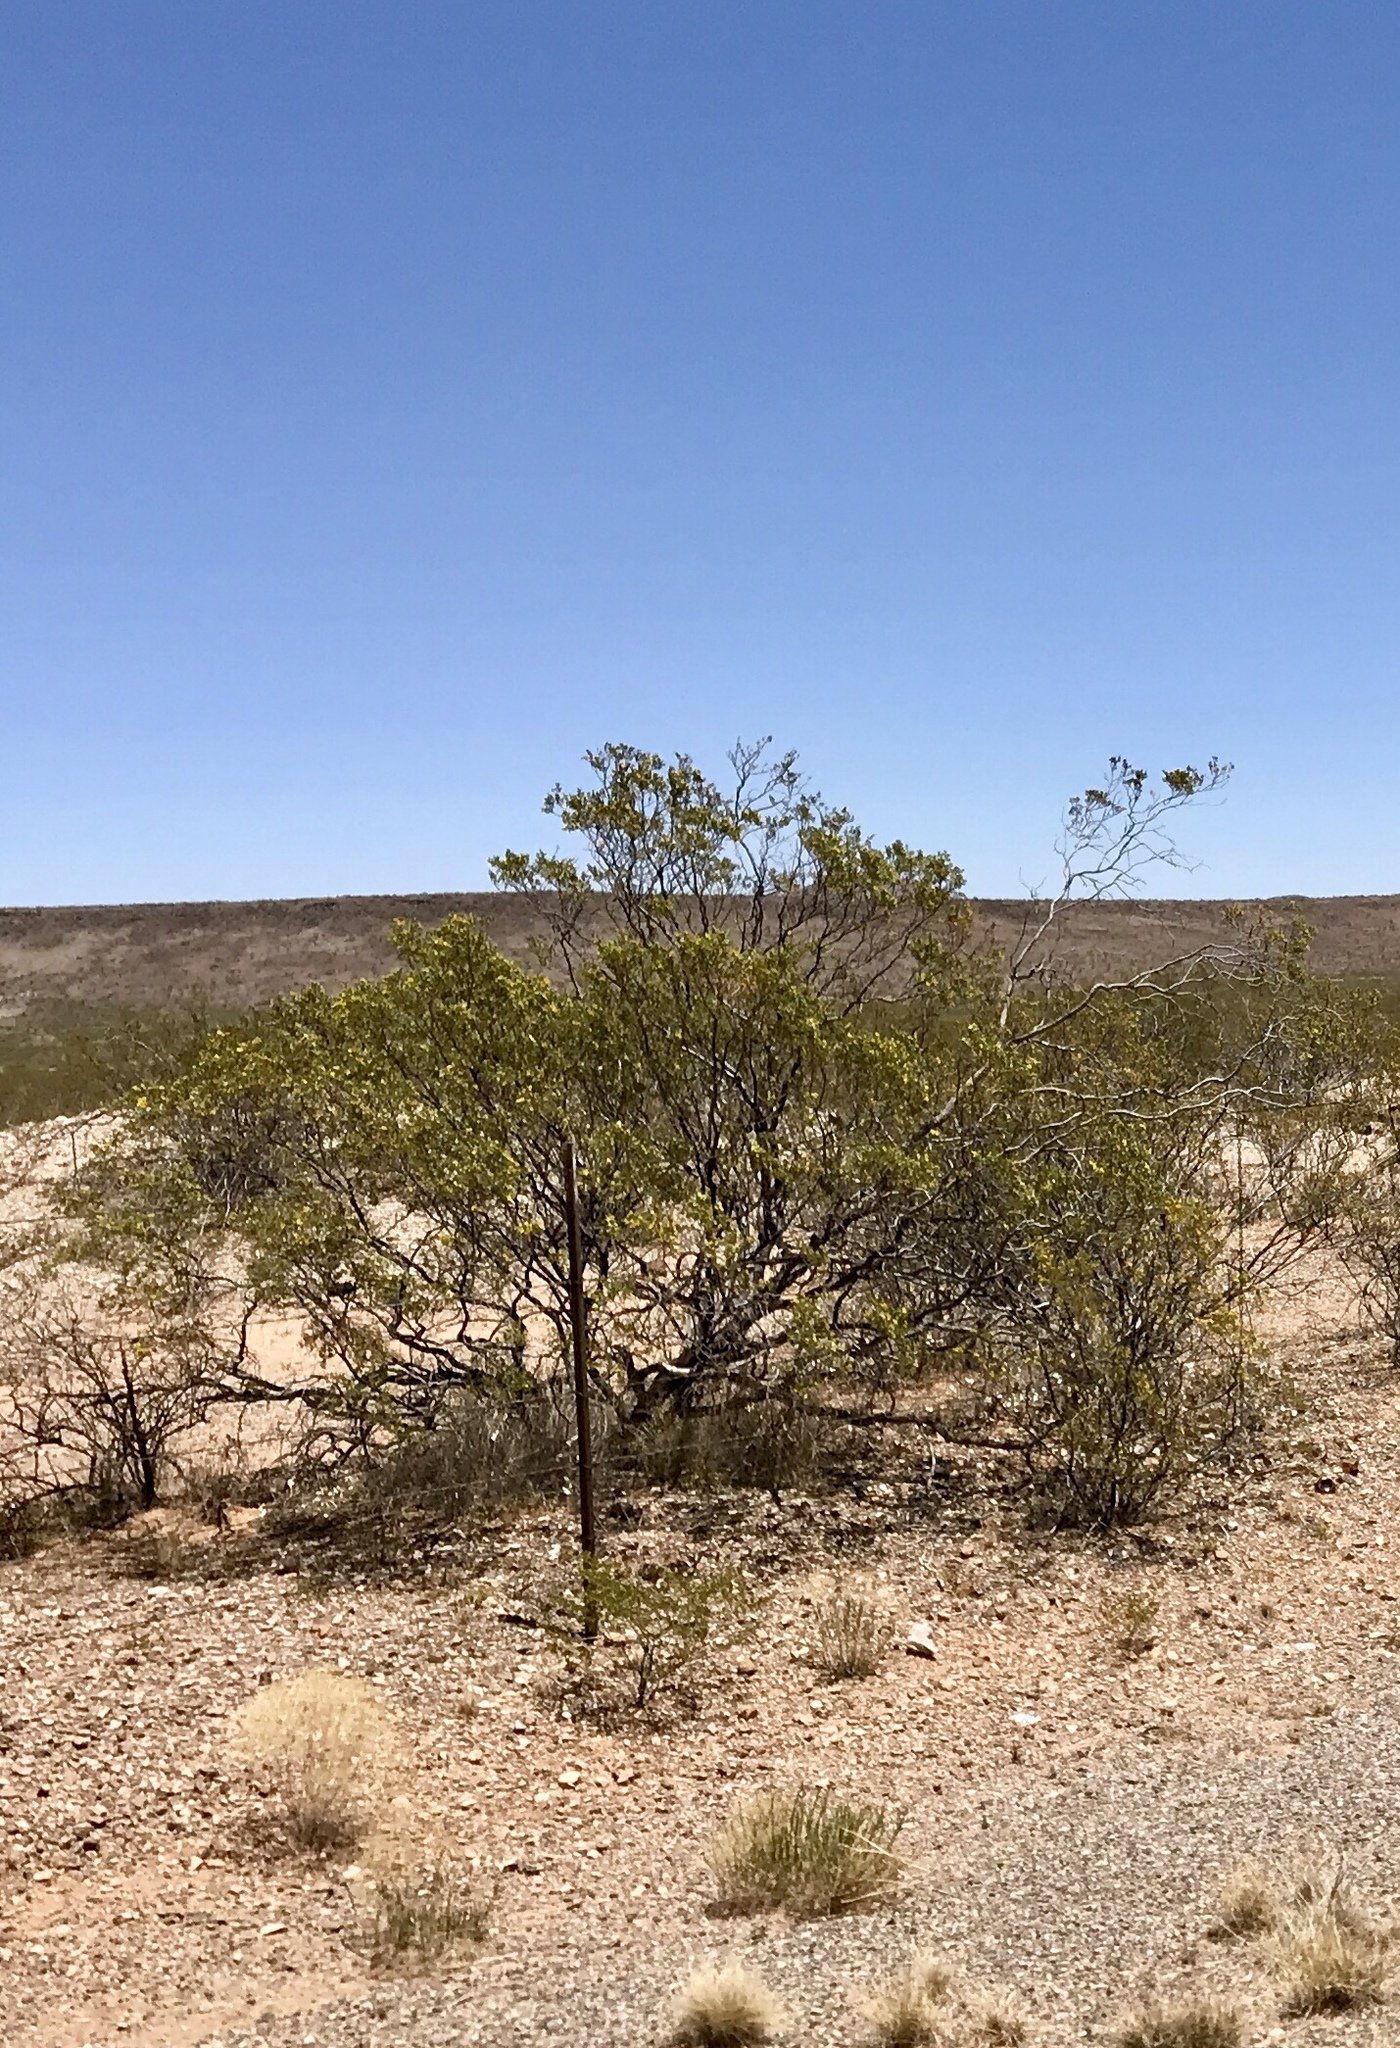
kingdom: Plantae
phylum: Tracheophyta
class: Magnoliopsida
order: Zygophyllales
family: Zygophyllaceae
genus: Larrea
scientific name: Larrea tridentata
